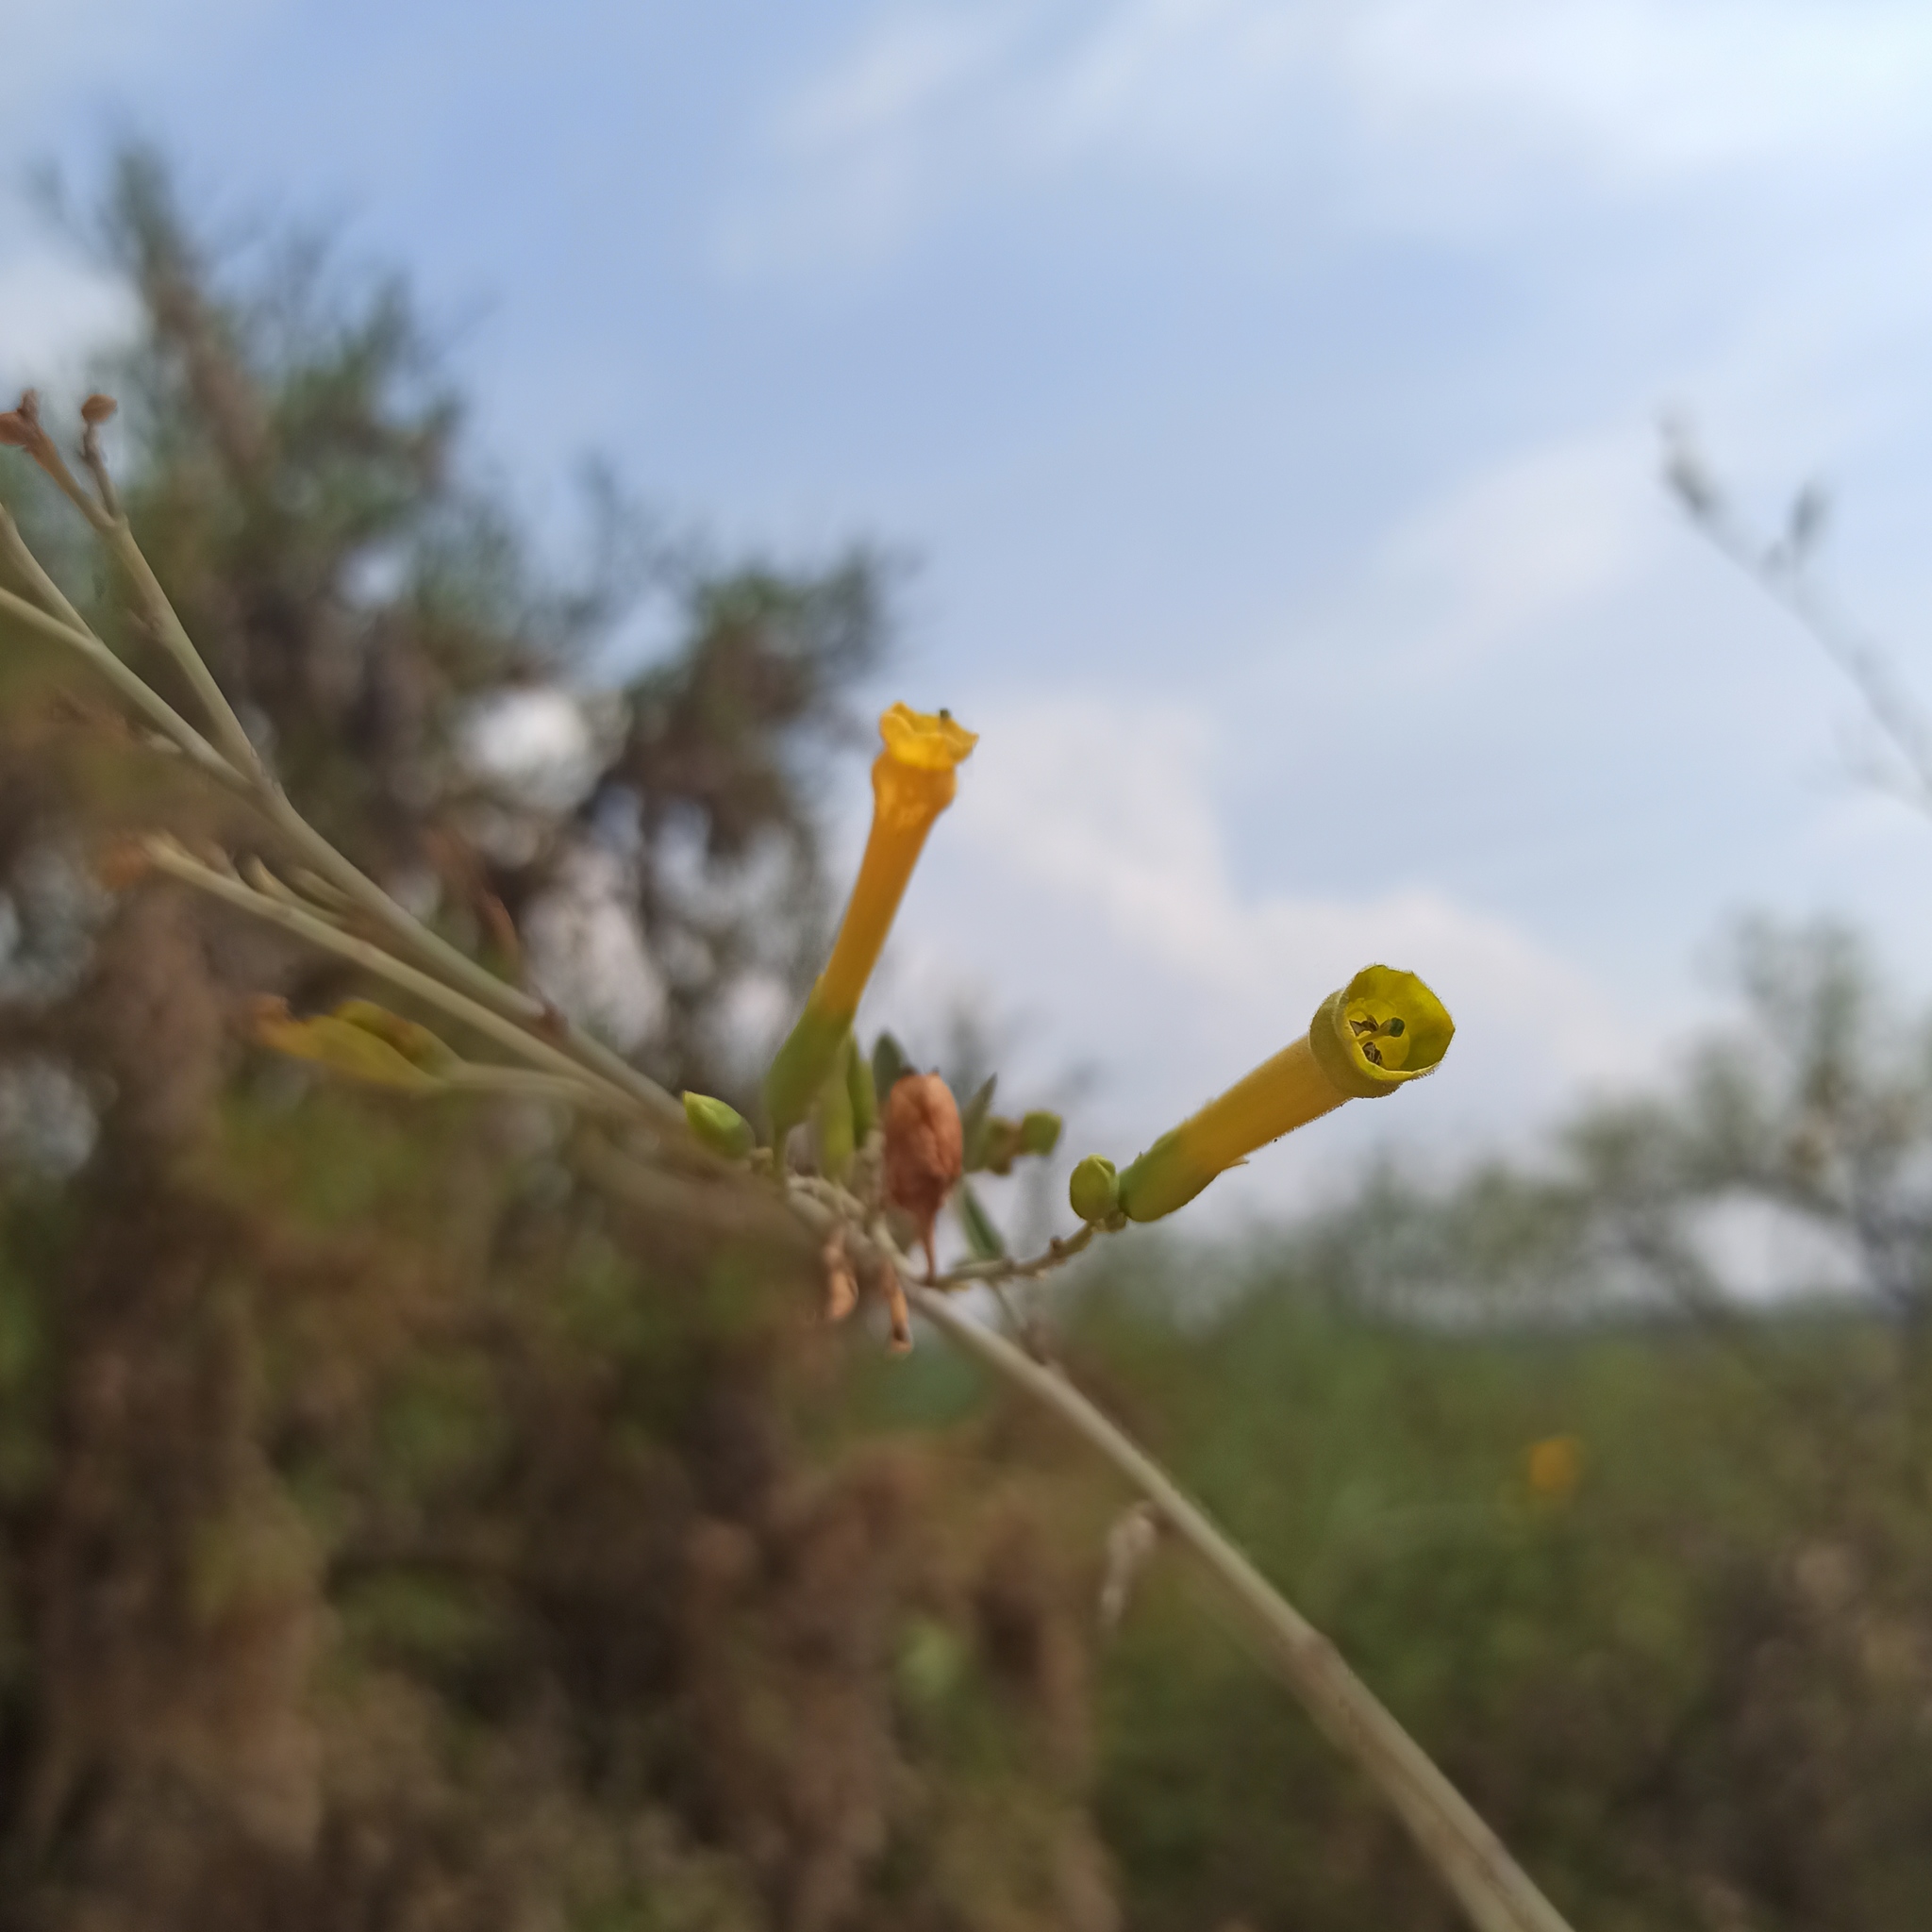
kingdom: Plantae
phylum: Tracheophyta
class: Magnoliopsida
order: Solanales
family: Solanaceae
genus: Nicotiana
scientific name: Nicotiana glauca
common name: Tree tobacco
